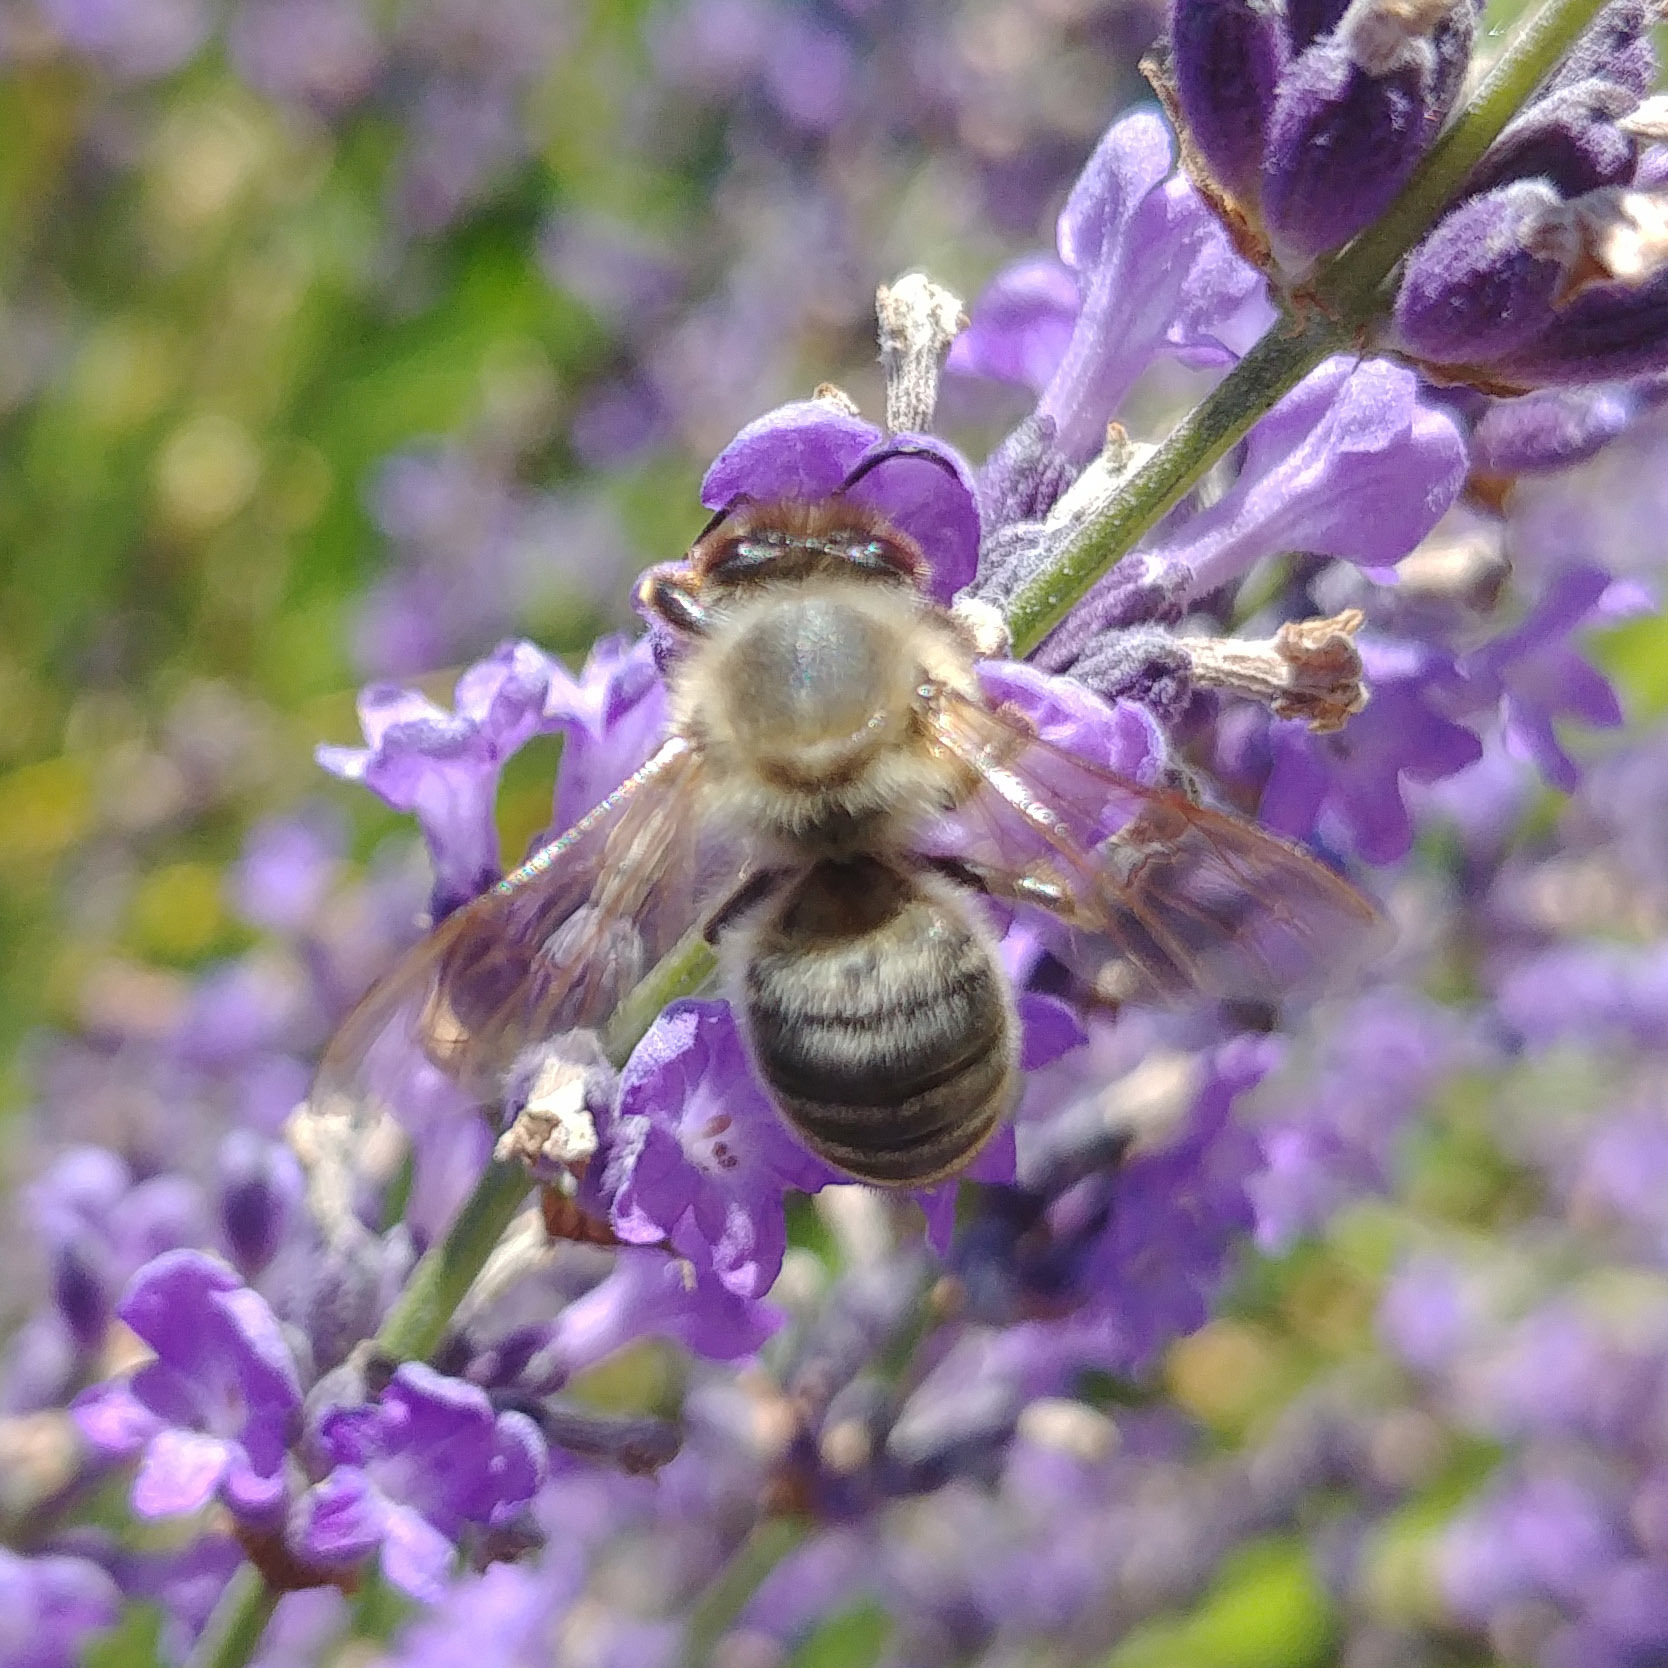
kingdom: Animalia
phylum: Arthropoda
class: Insecta
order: Hymenoptera
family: Apidae
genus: Apis
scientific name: Apis mellifera
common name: Honey bee
